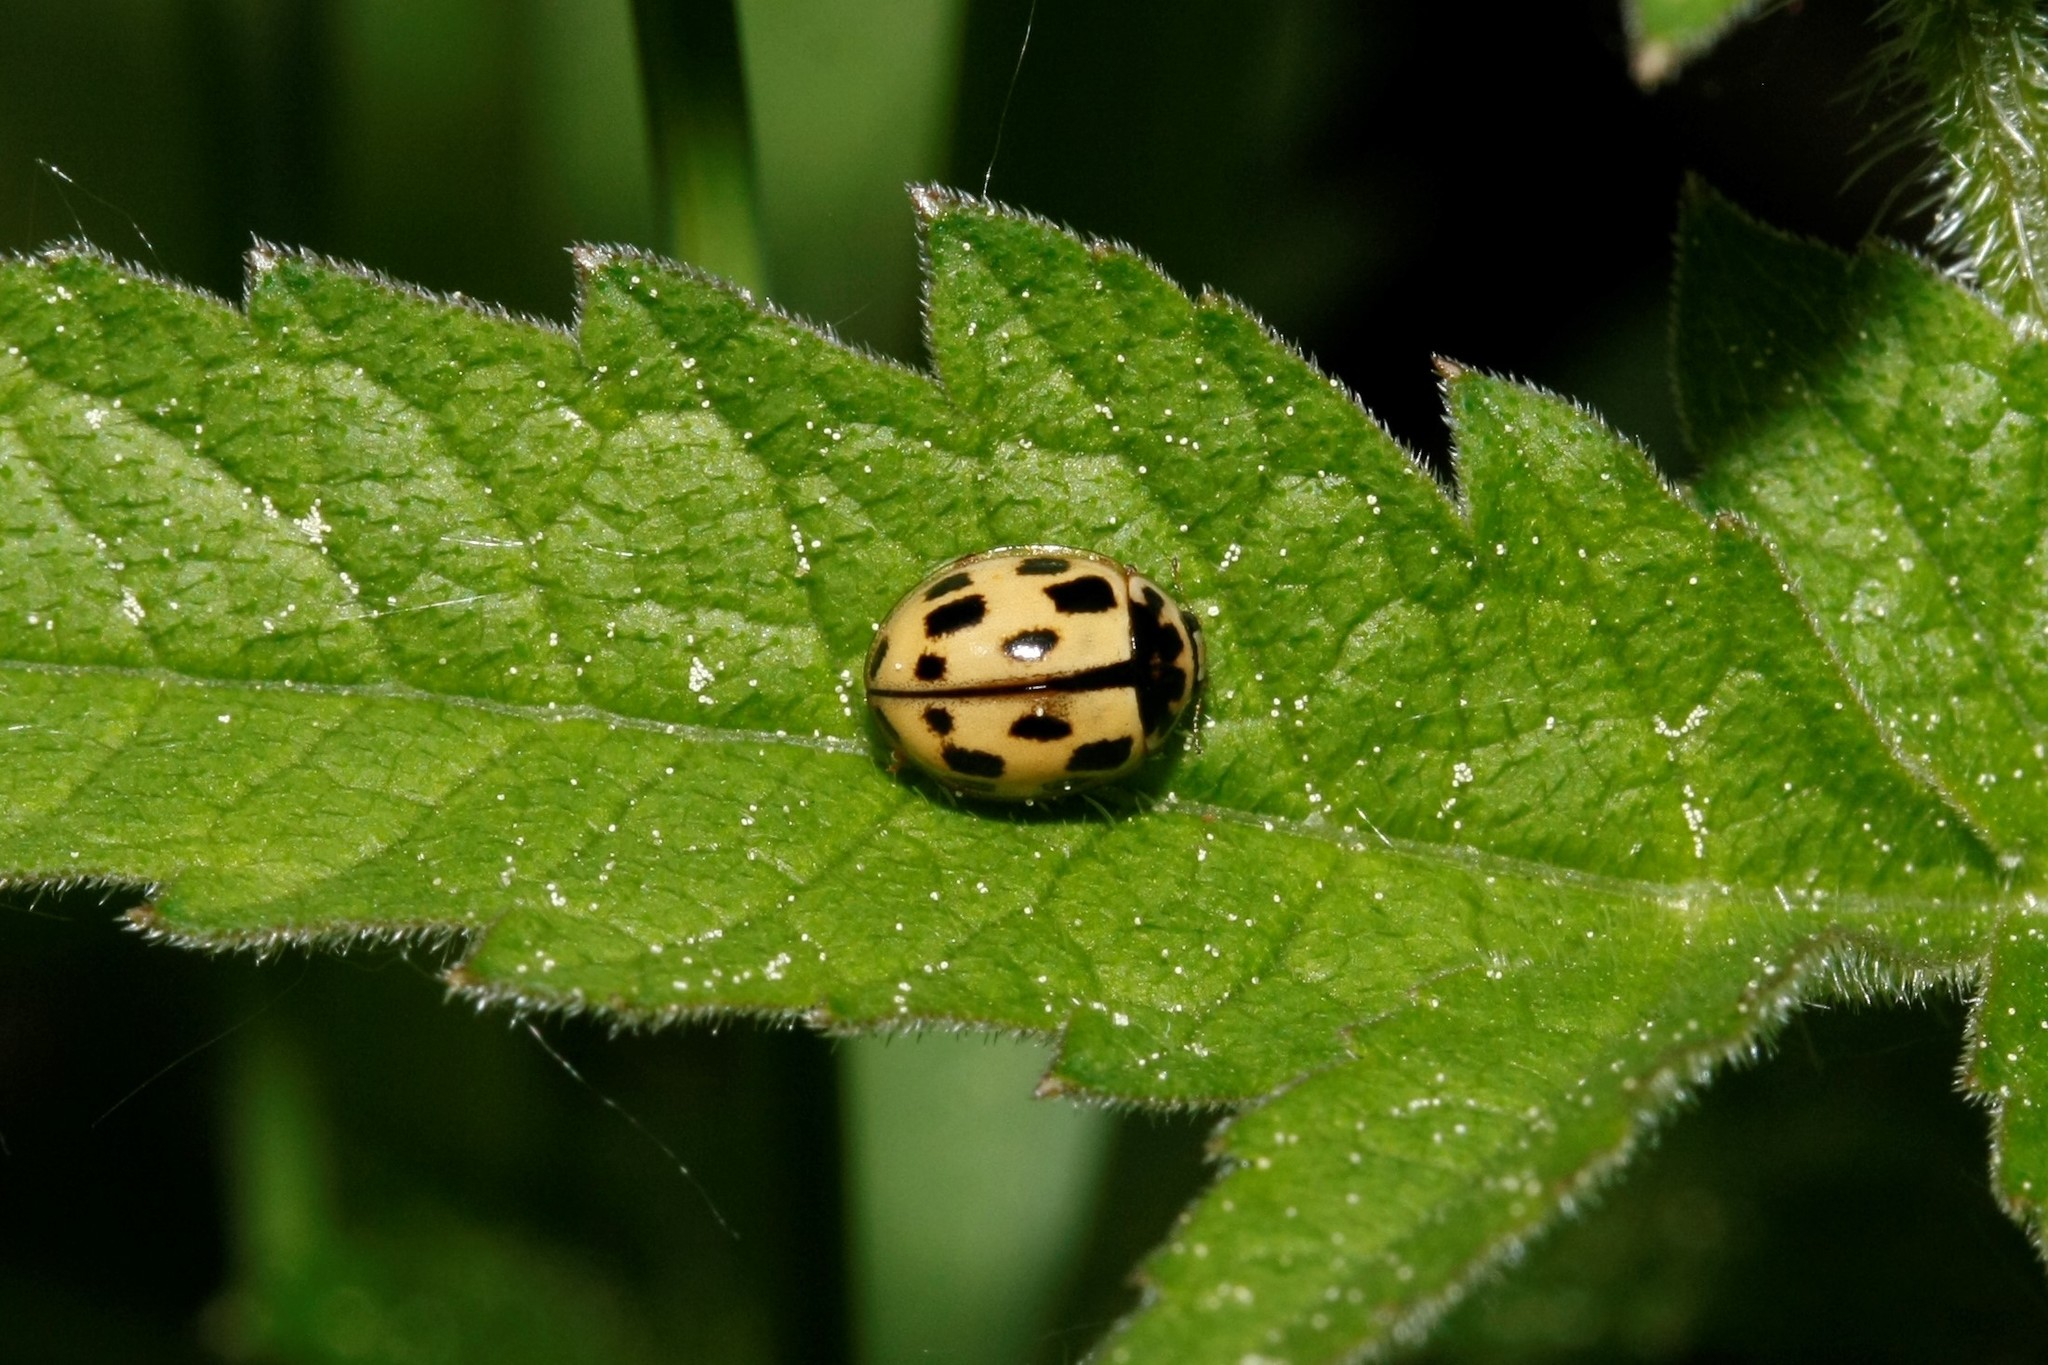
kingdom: Animalia
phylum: Arthropoda
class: Insecta
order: Coleoptera
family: Coccinellidae
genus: Propylaea
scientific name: Propylaea quatuordecimpunctata
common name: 14-spotted ladybird beetle
